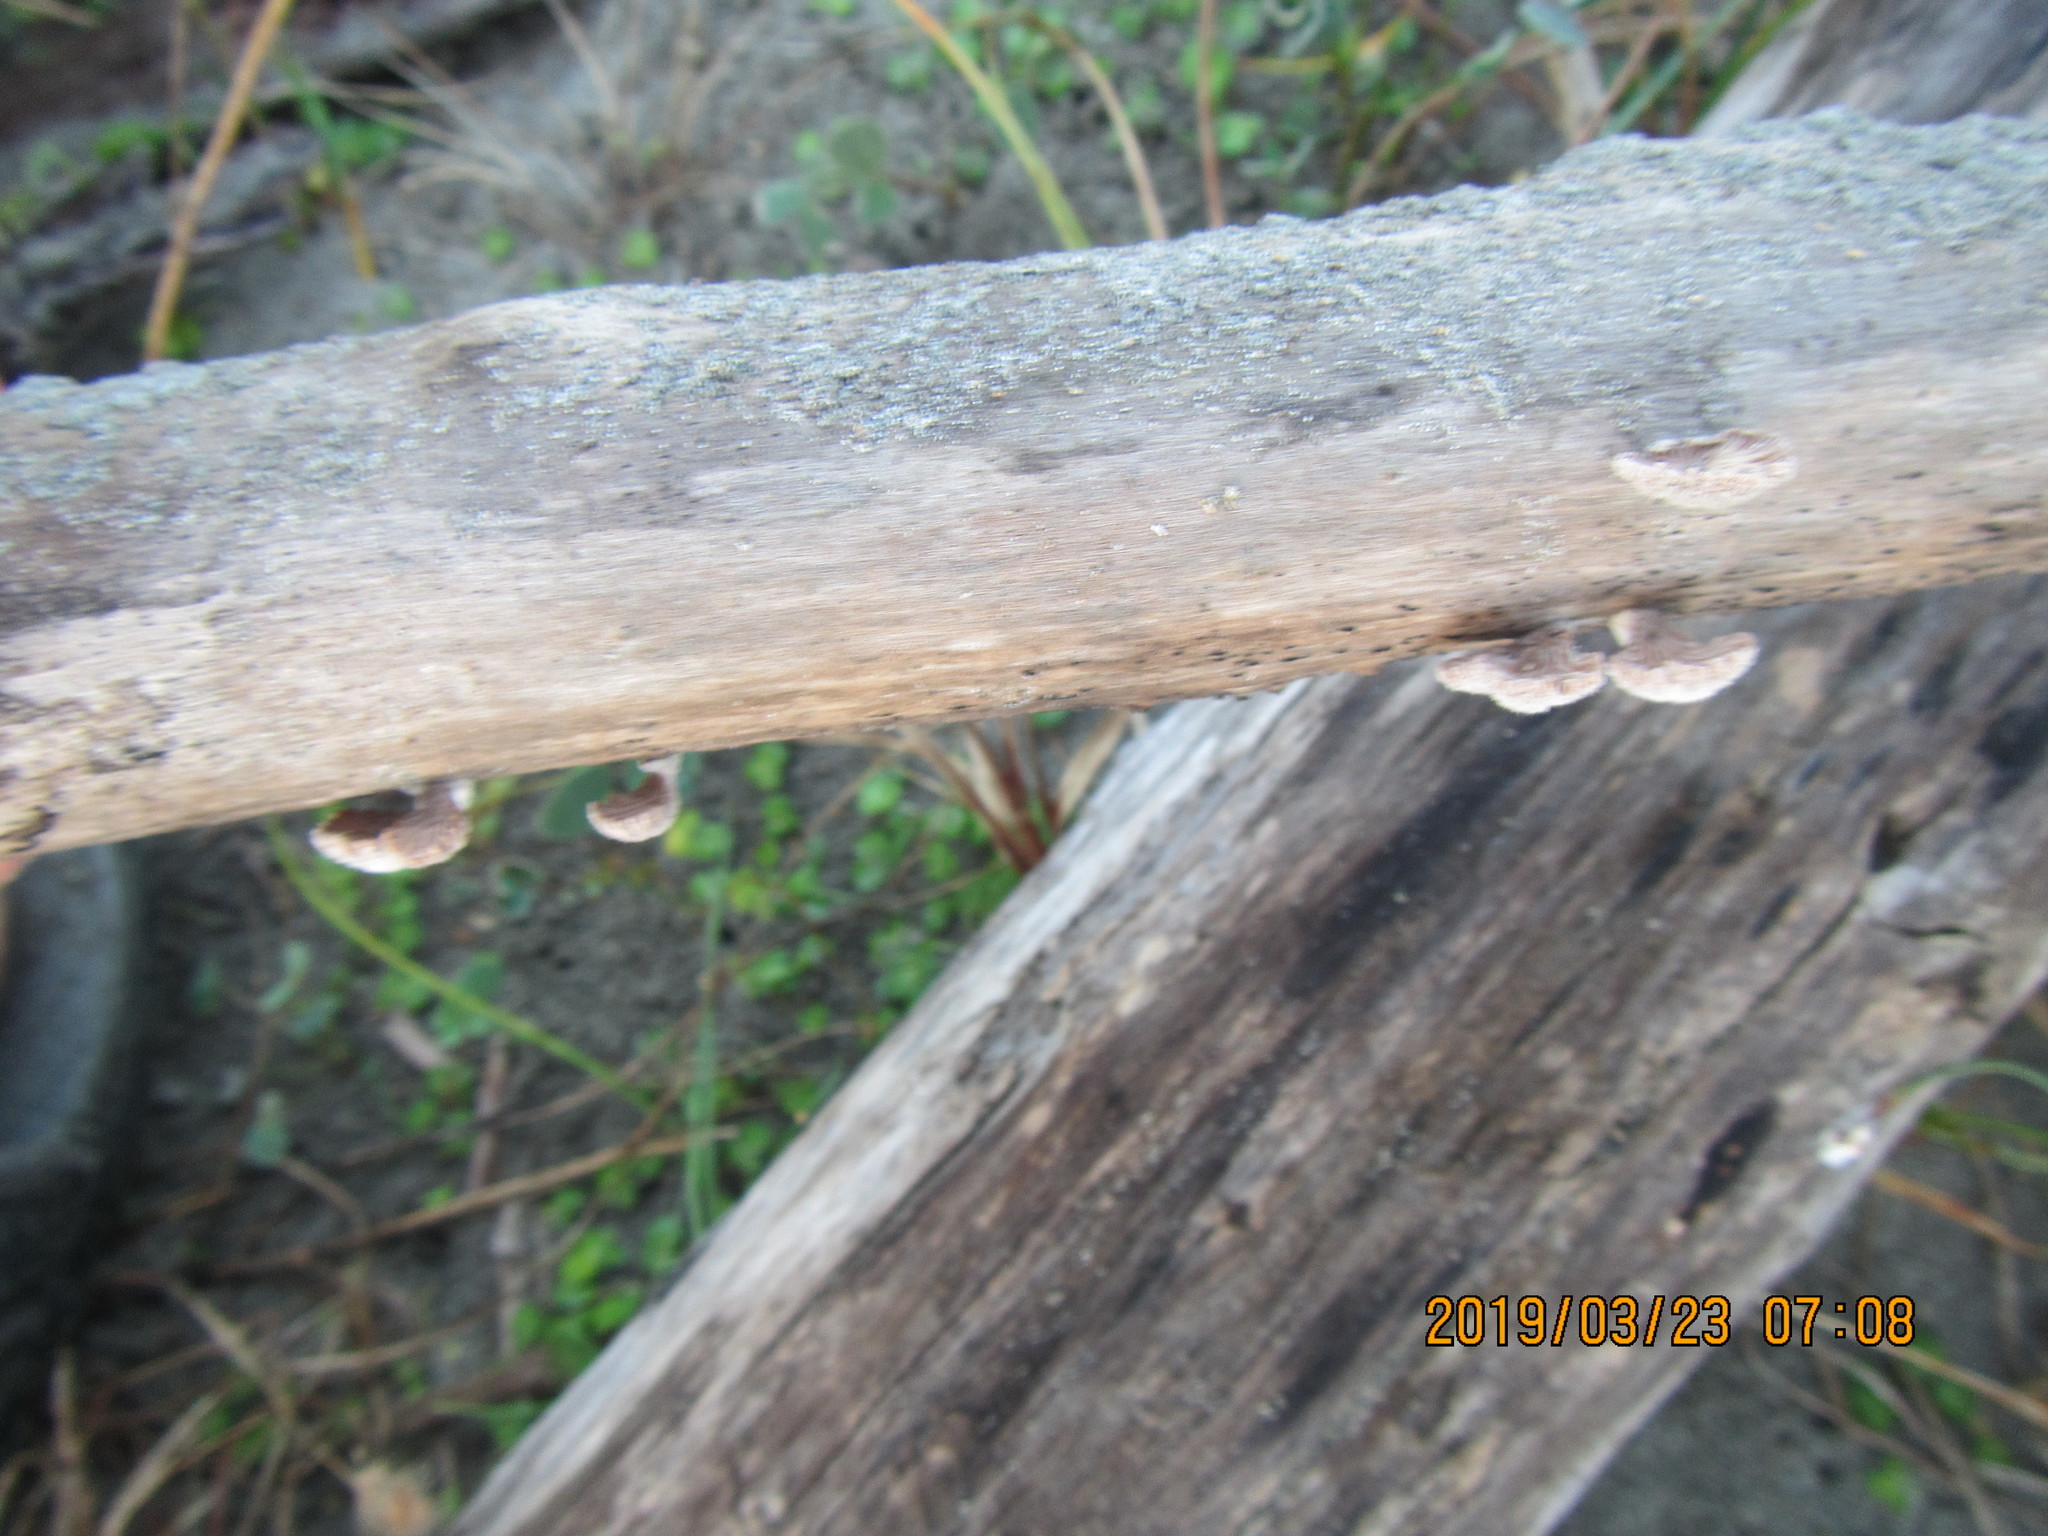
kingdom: Fungi
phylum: Basidiomycota
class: Agaricomycetes
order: Agaricales
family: Schizophyllaceae
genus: Schizophyllum
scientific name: Schizophyllum commune
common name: Common porecrust
